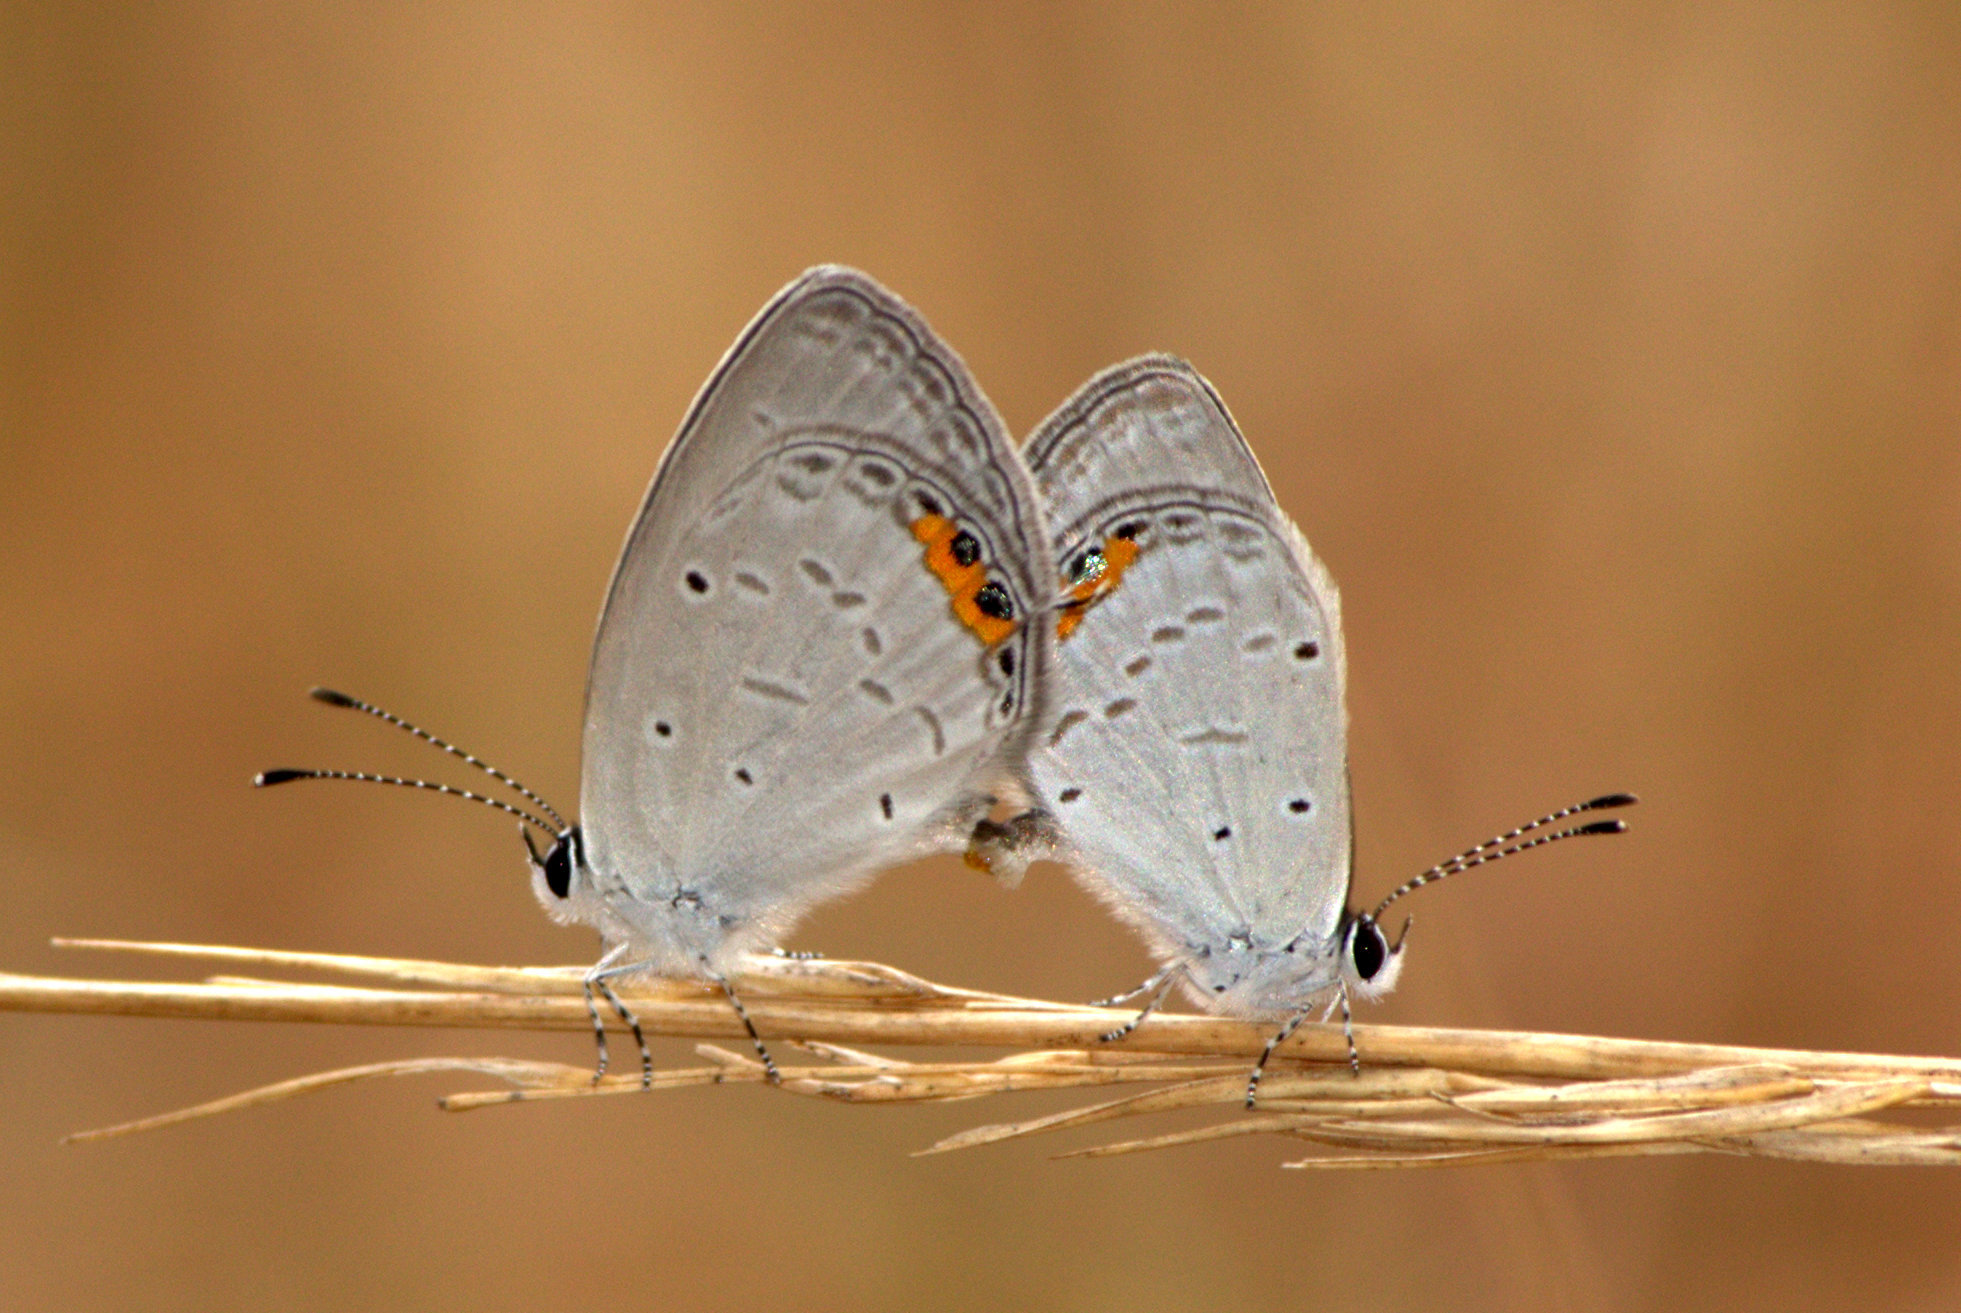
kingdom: Animalia
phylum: Arthropoda
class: Insecta
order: Lepidoptera
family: Lycaenidae
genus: Everes
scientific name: Everes lacturnus
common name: Orange-tipped pea-blue
